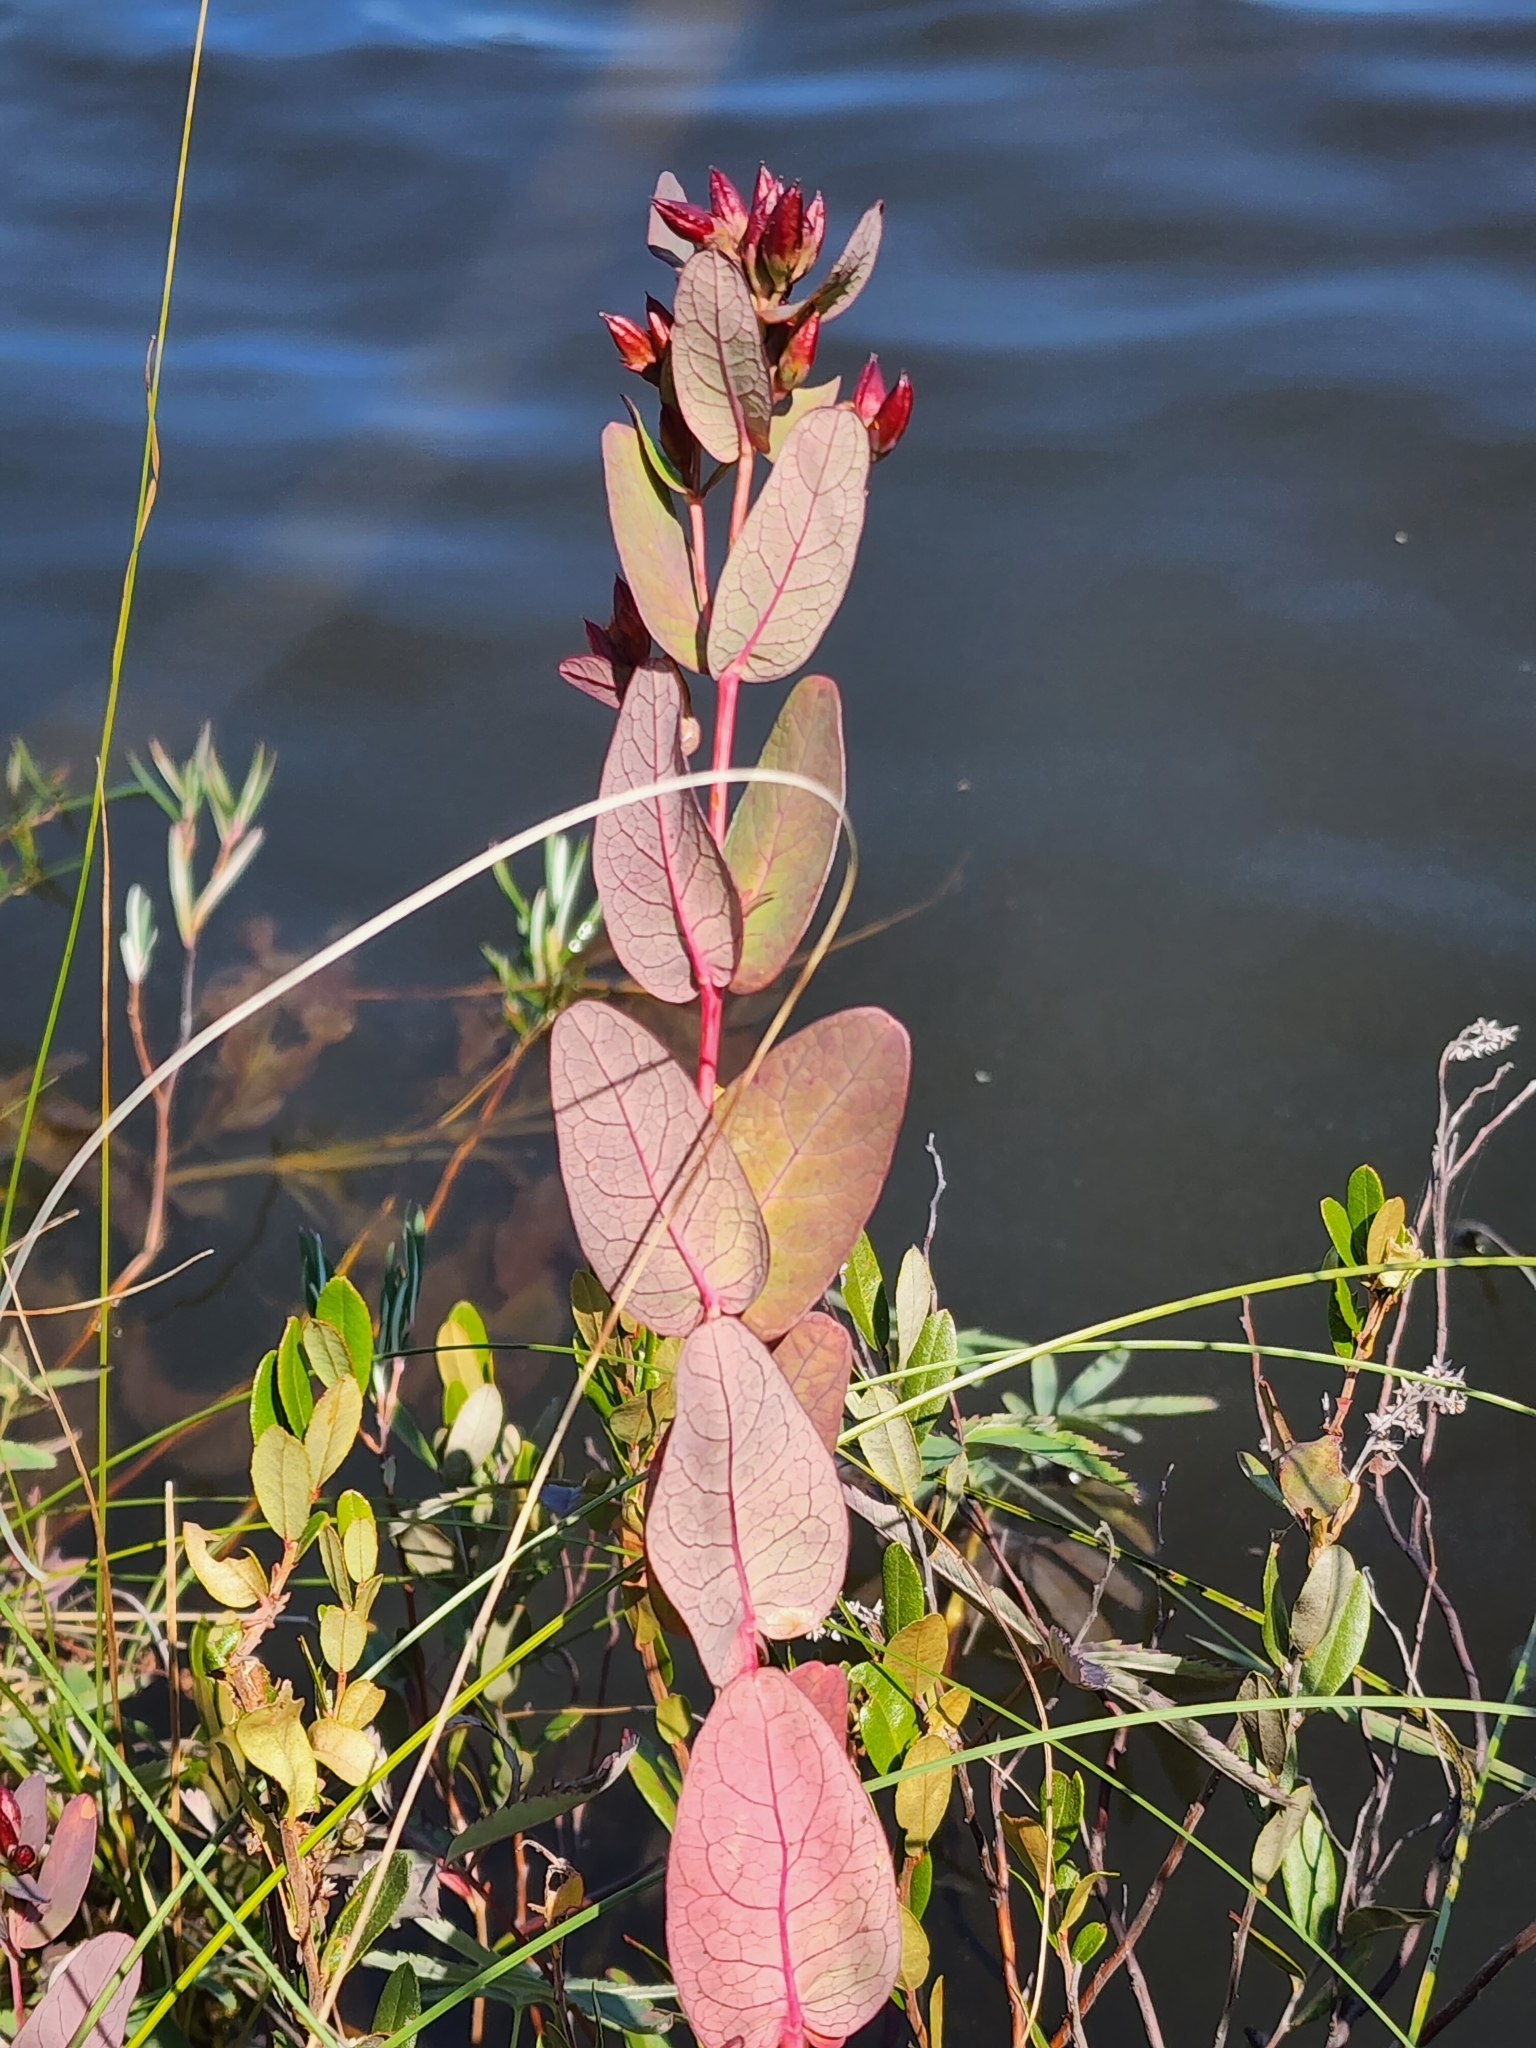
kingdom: Plantae
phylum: Tracheophyta
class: Magnoliopsida
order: Malpighiales
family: Hypericaceae
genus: Triadenum
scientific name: Triadenum fraseri
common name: Fraser's marsh st. johnswort
